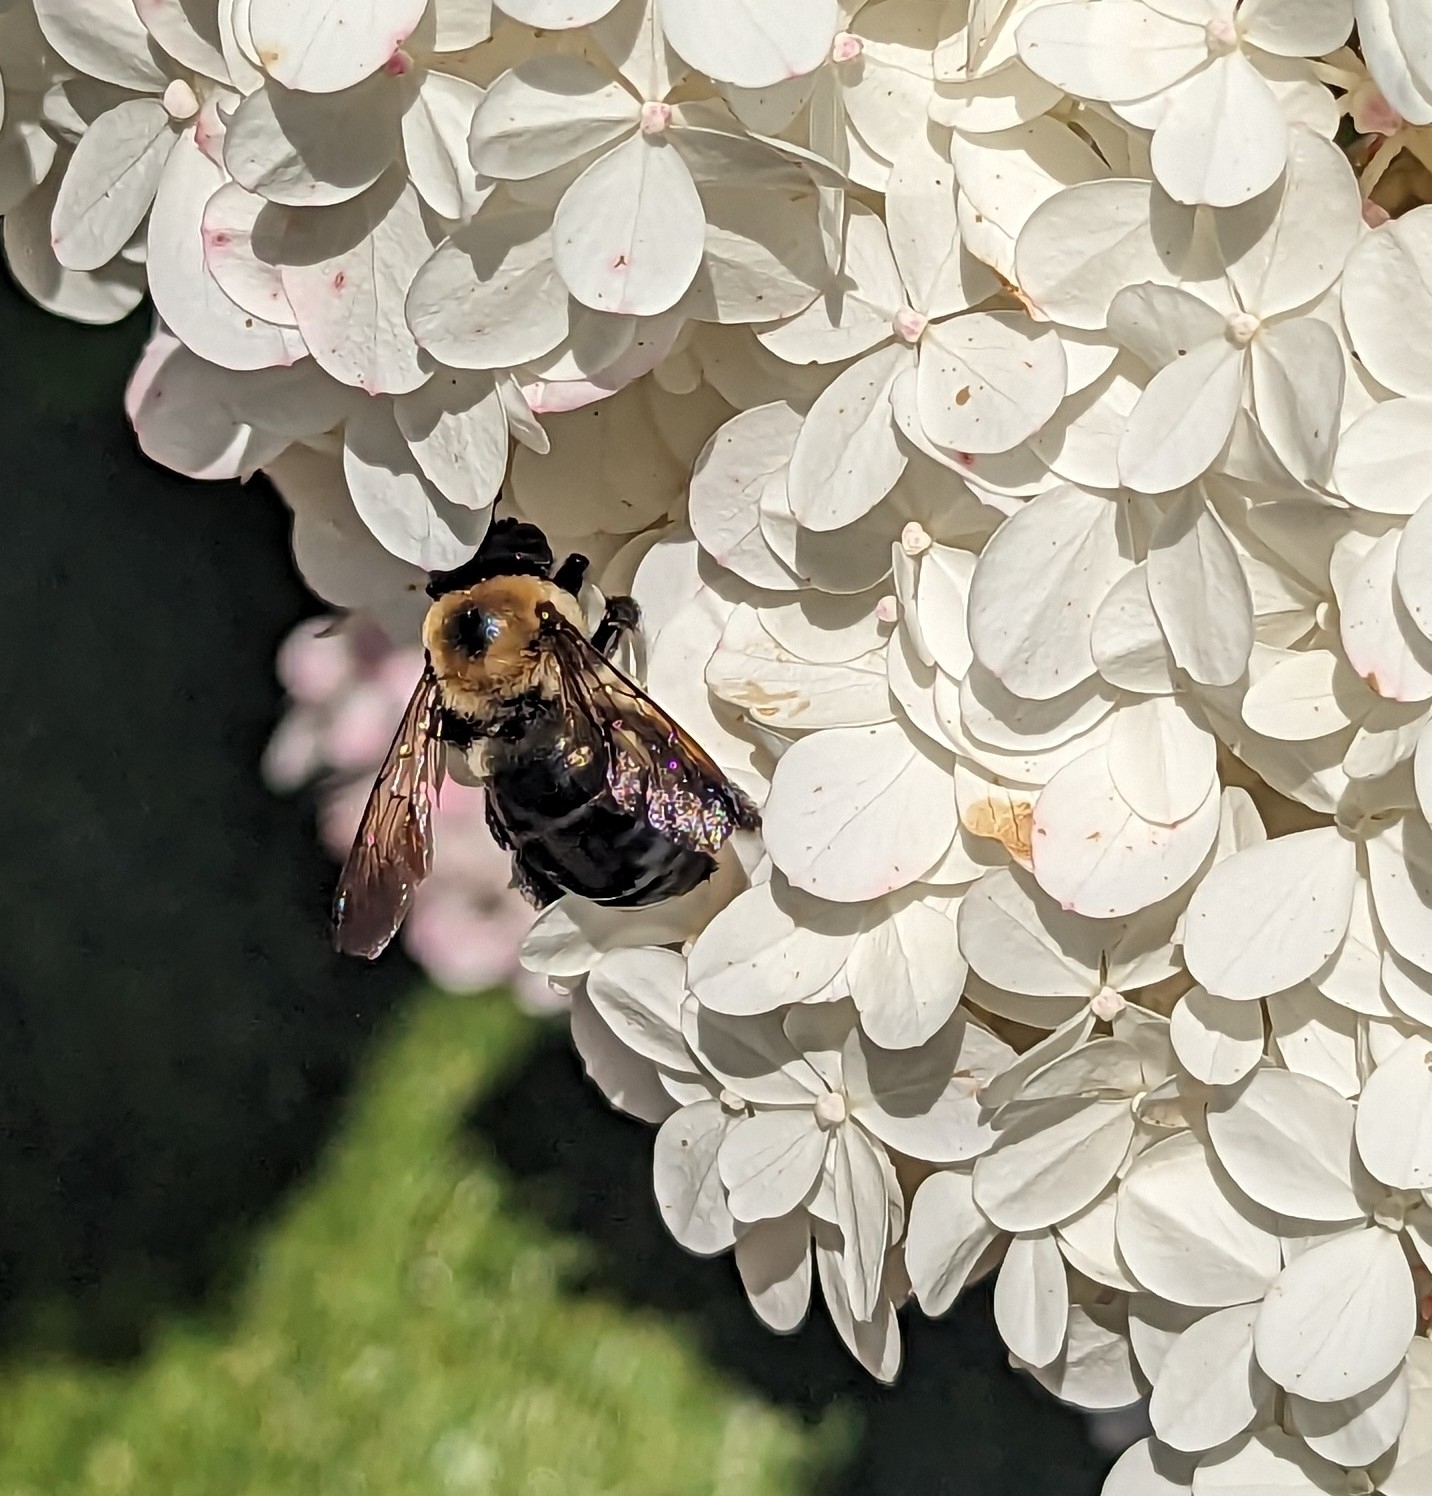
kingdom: Animalia
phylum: Arthropoda
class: Insecta
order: Hymenoptera
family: Apidae
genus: Xylocopa
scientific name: Xylocopa virginica
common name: Carpenter bee
